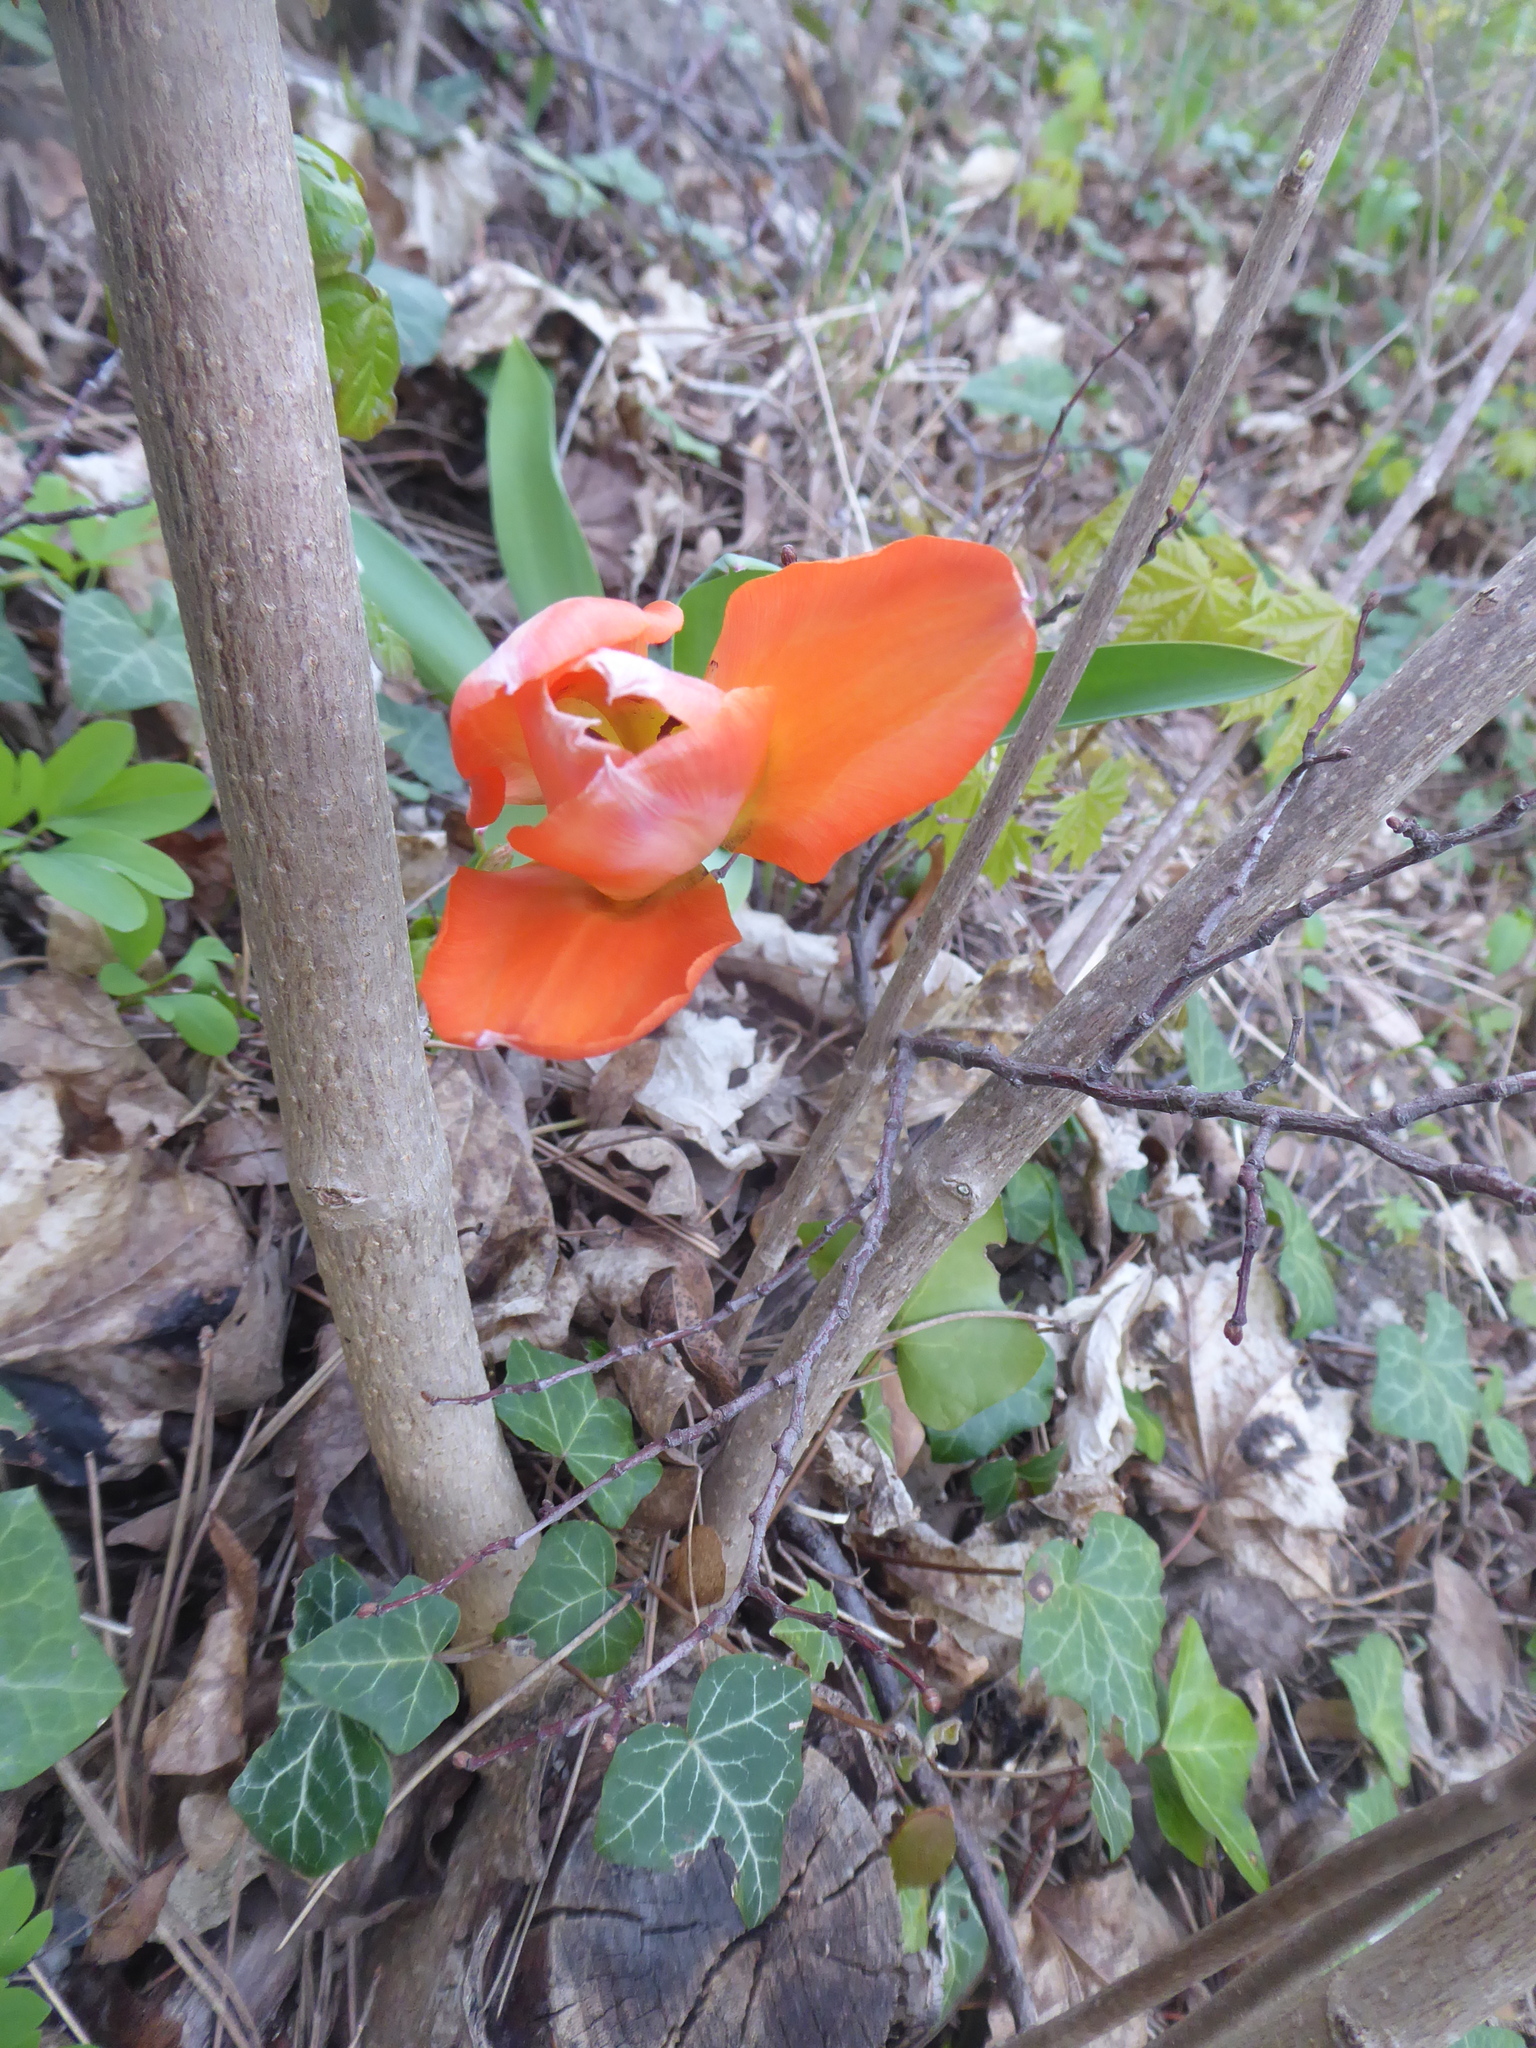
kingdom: Plantae
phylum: Tracheophyta
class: Liliopsida
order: Liliales
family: Liliaceae
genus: Tulipa
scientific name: Tulipa gesneriana
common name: Garden tulip
